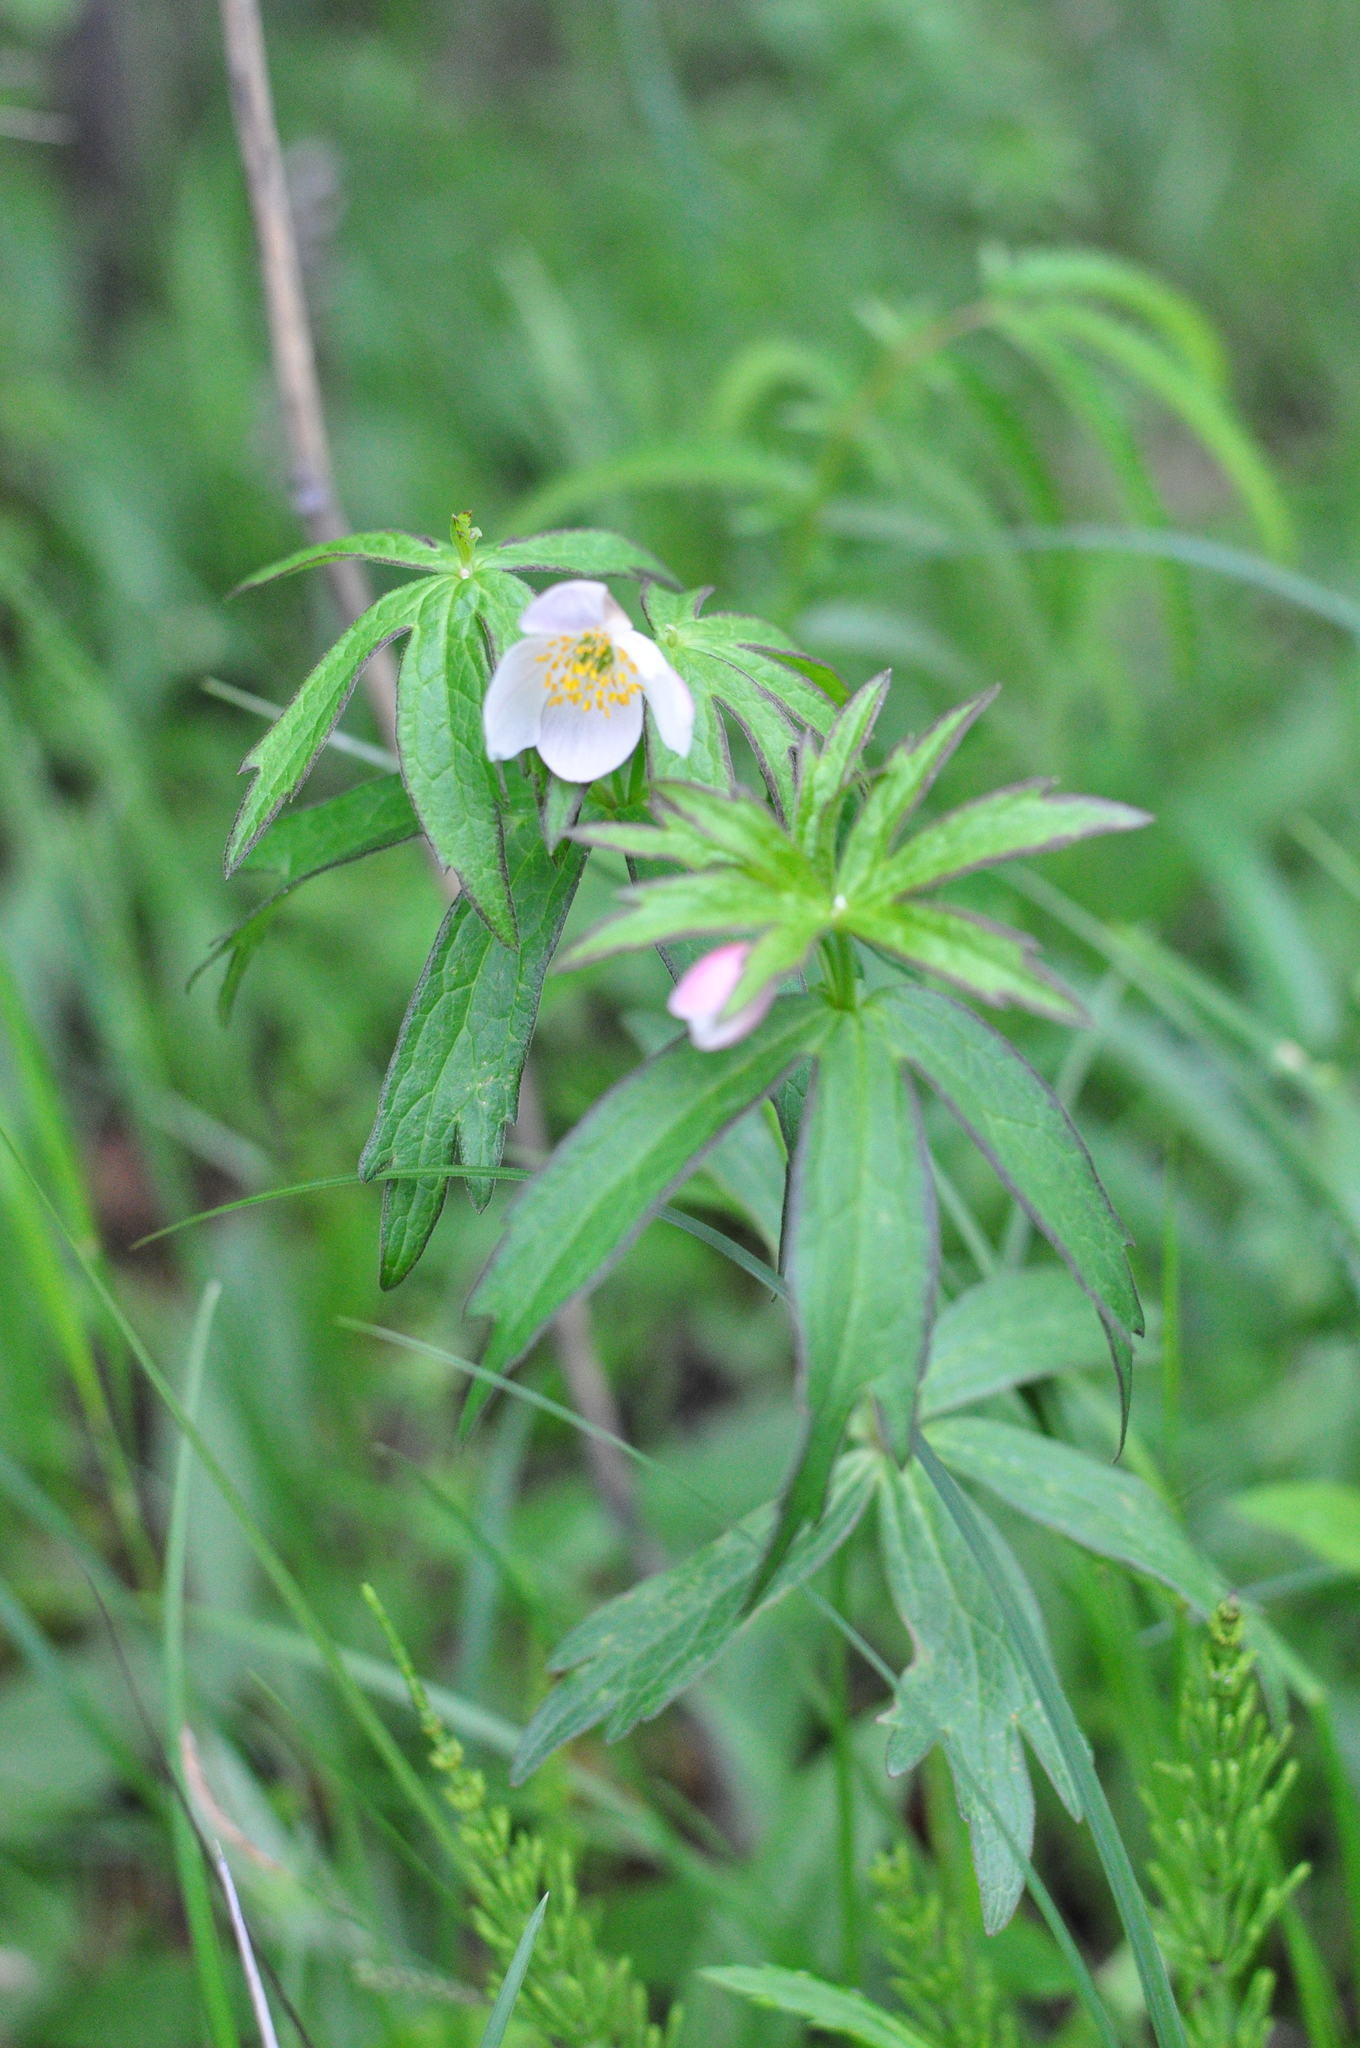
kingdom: Plantae
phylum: Tracheophyta
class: Magnoliopsida
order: Ranunculales
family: Ranunculaceae
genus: Anemonastrum
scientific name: Anemonastrum dichotomum
